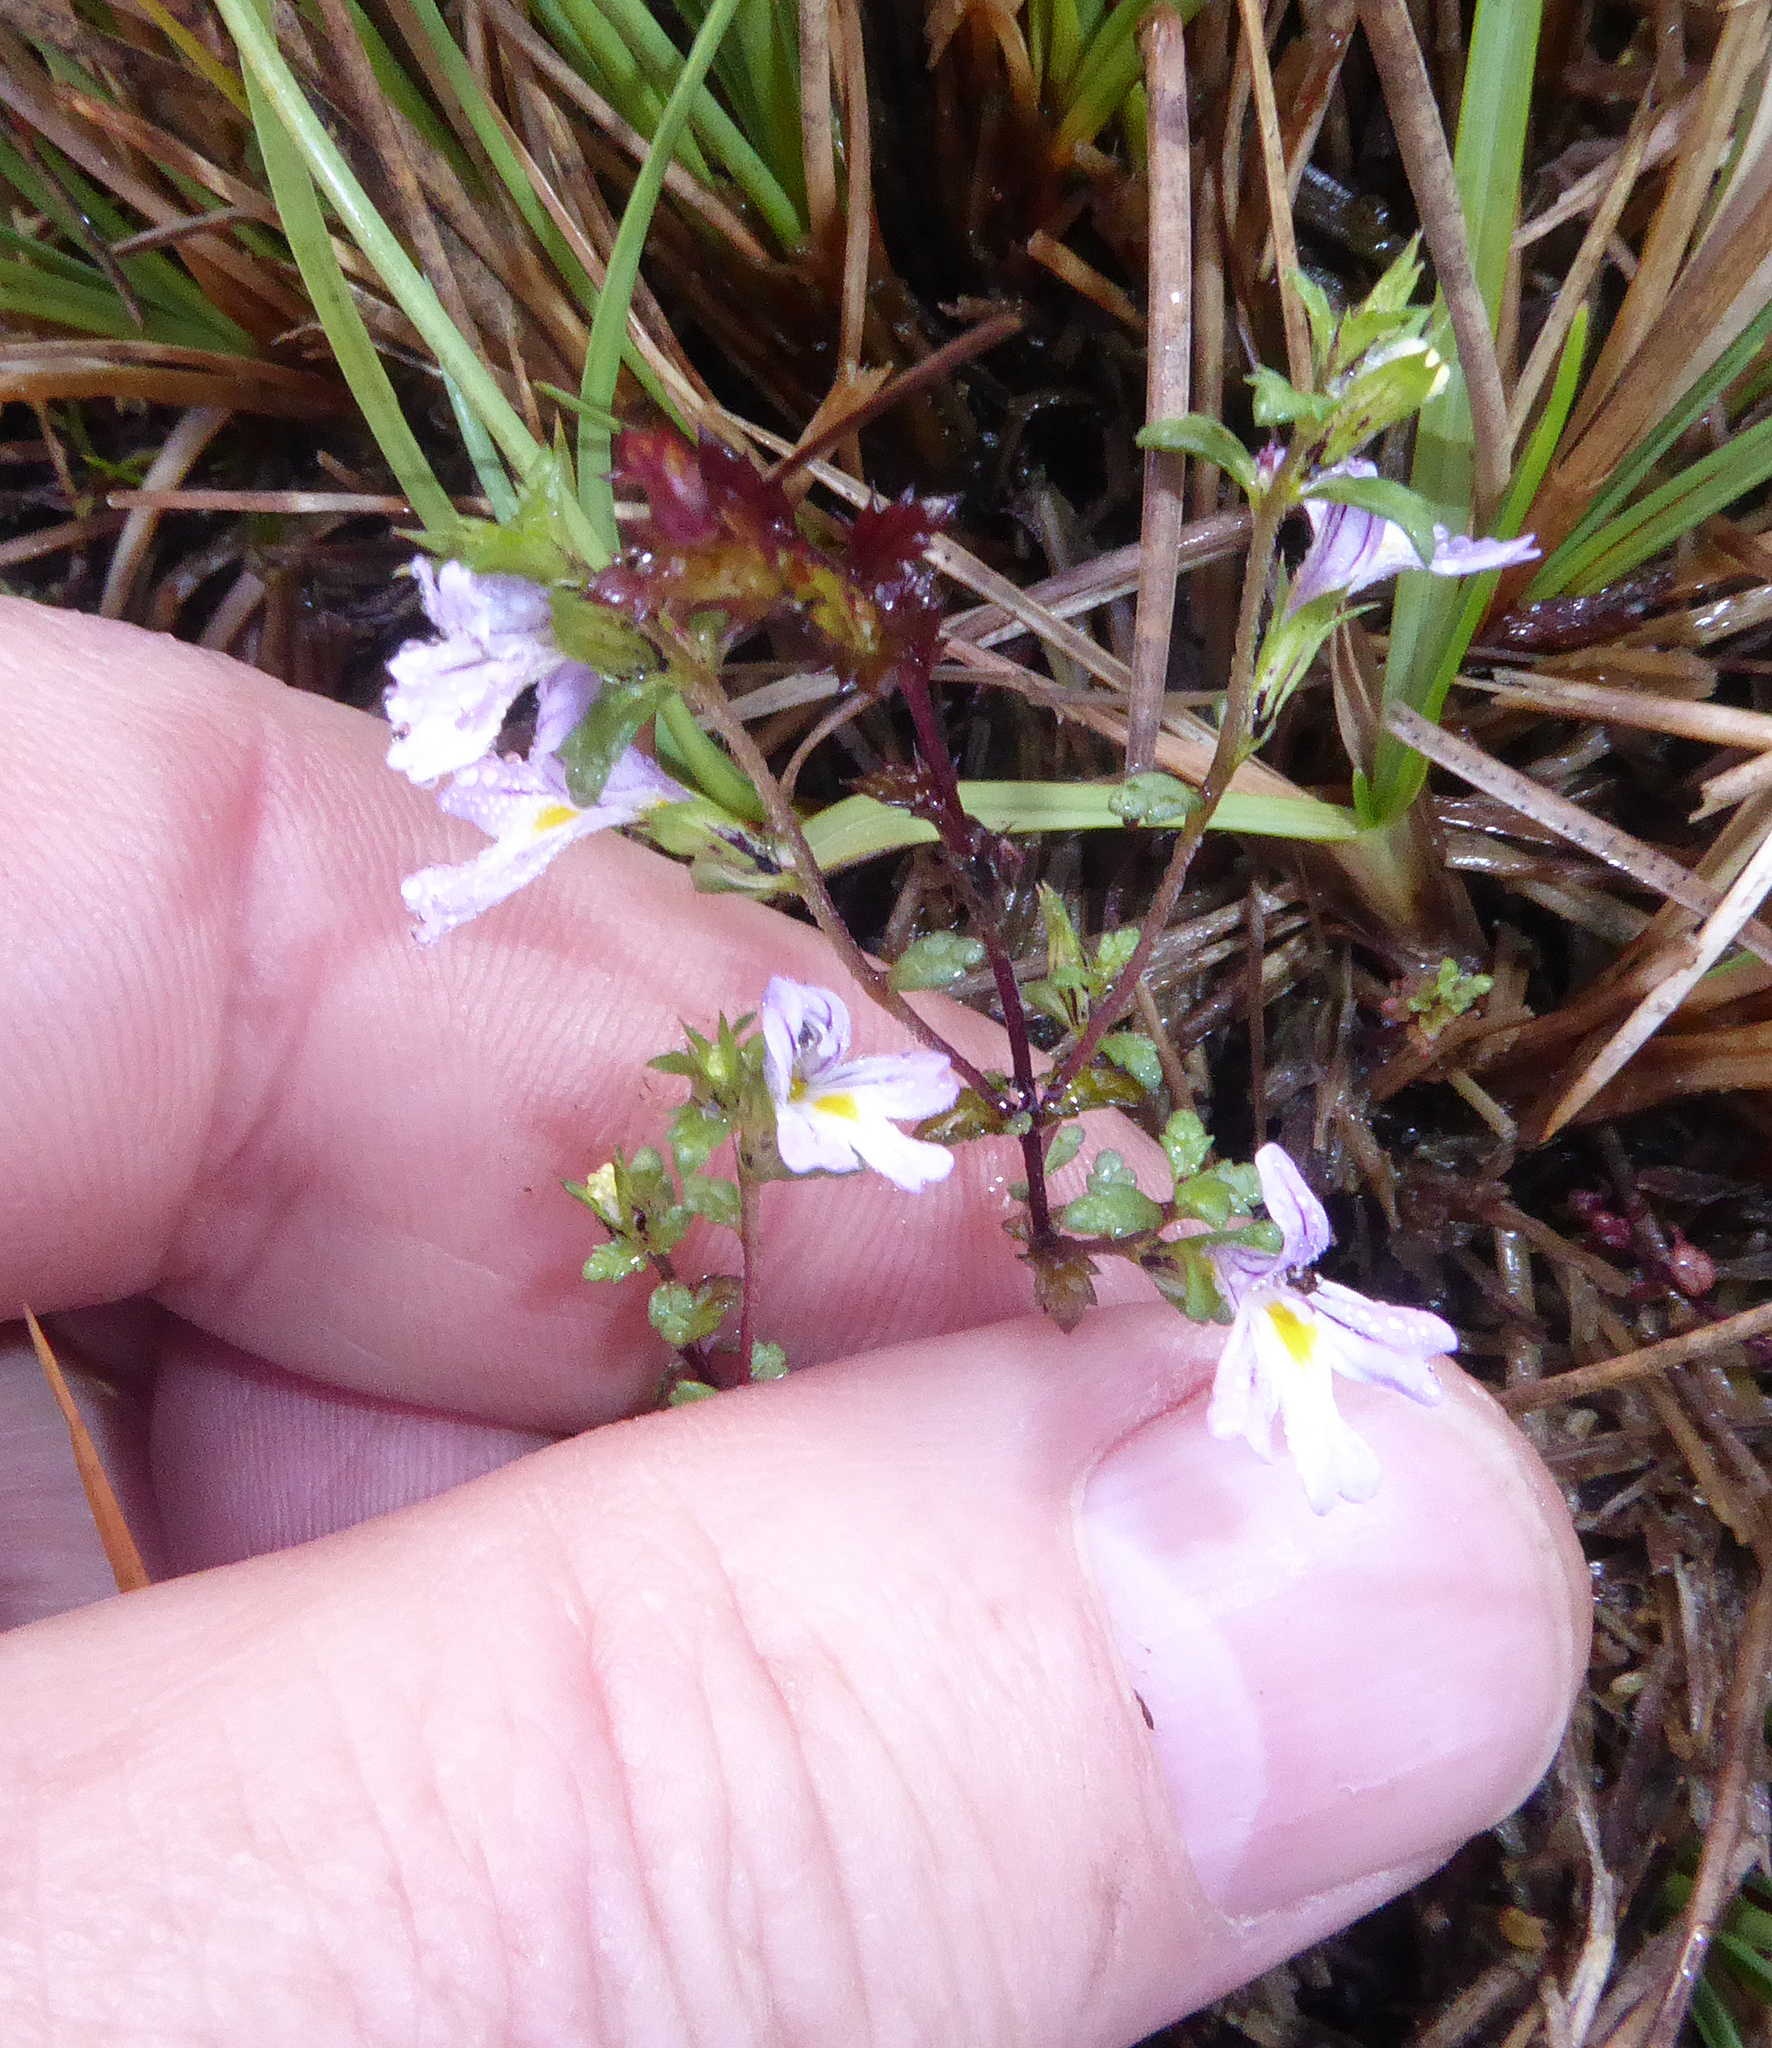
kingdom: Plantae
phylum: Tracheophyta
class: Magnoliopsida
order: Lamiales
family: Orobanchaceae
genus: Euphrasia
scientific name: Euphrasia nemorosa
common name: Common eyebright
